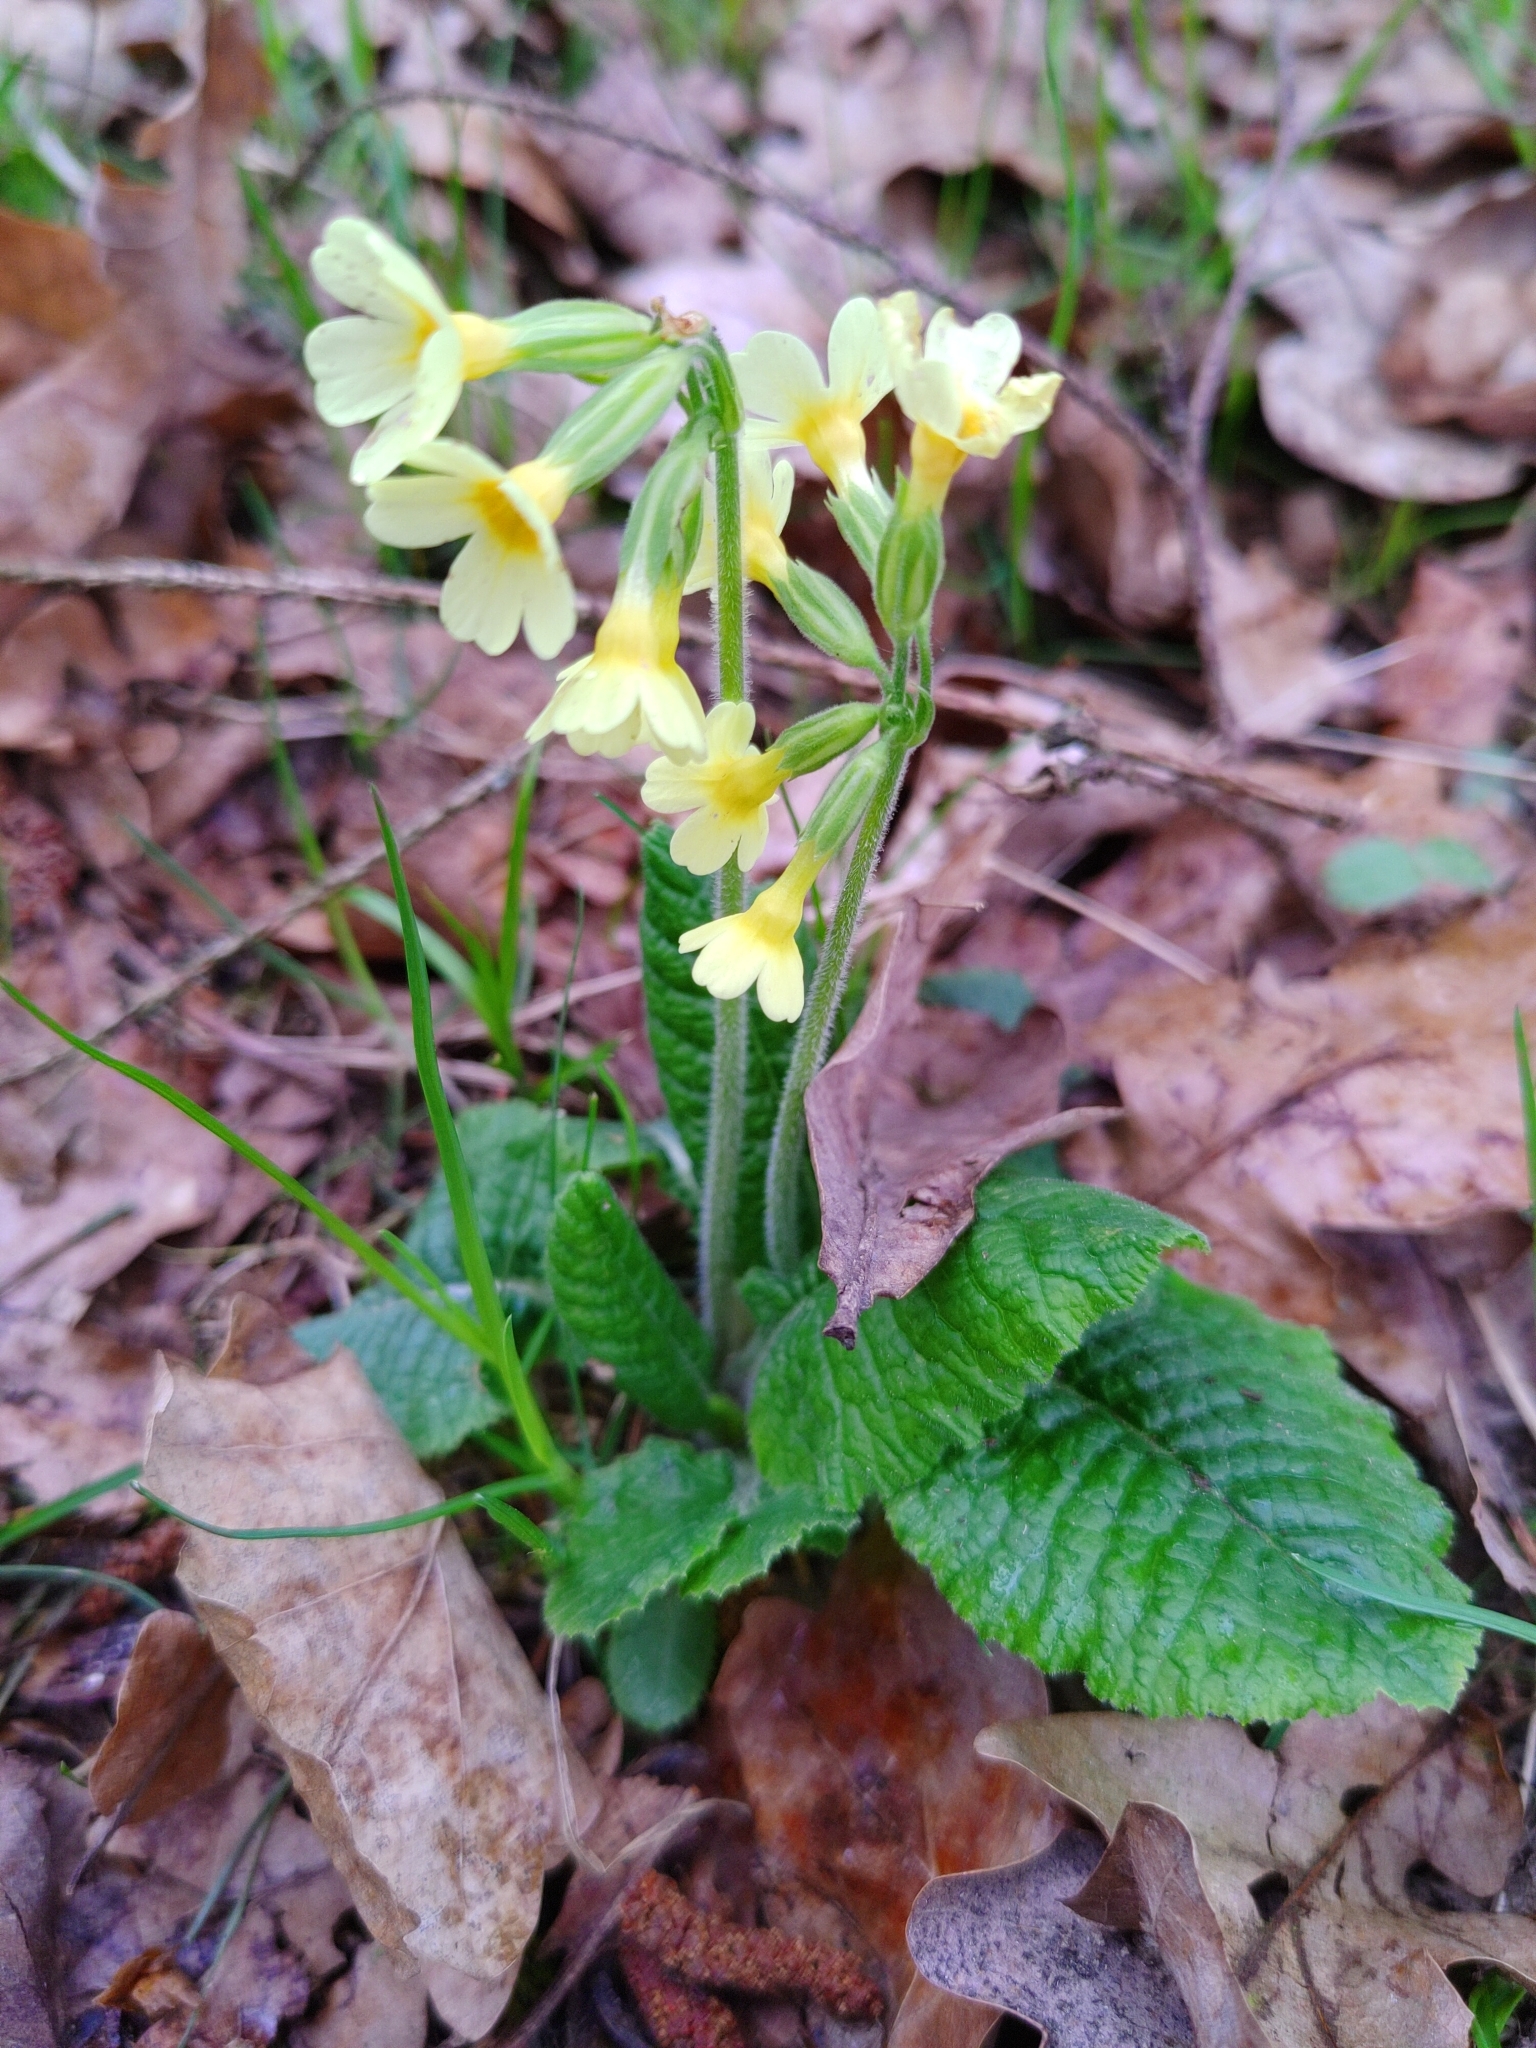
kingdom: Plantae
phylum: Tracheophyta
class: Magnoliopsida
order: Ericales
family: Primulaceae
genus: Primula
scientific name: Primula elatior
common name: Oxlip
